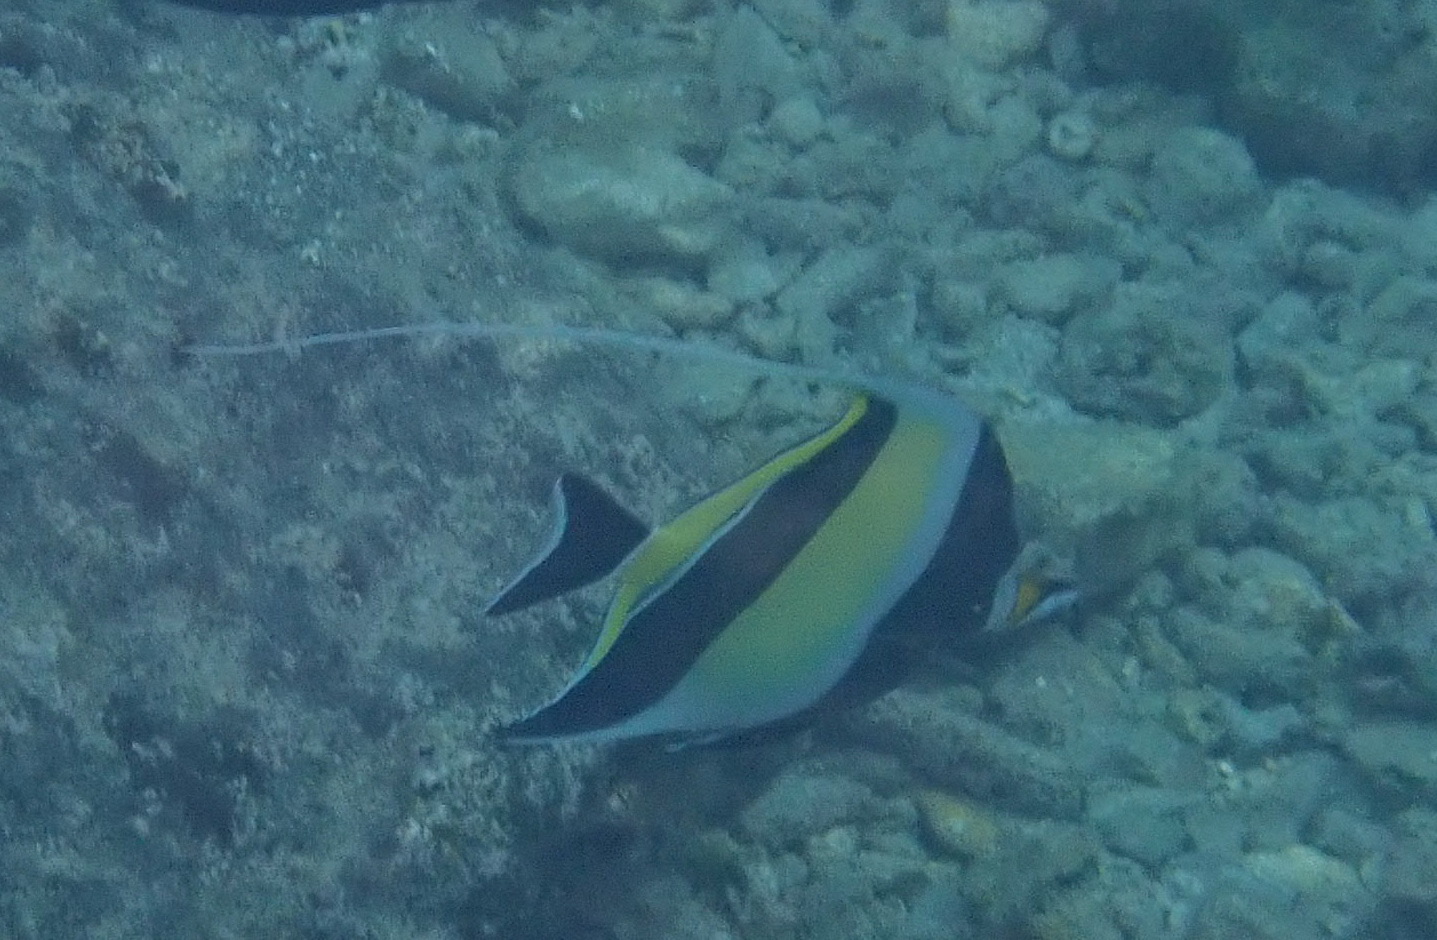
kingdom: Animalia
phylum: Chordata
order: Perciformes
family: Zanclidae
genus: Zanclus
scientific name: Zanclus cornutus
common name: Moorish idol
